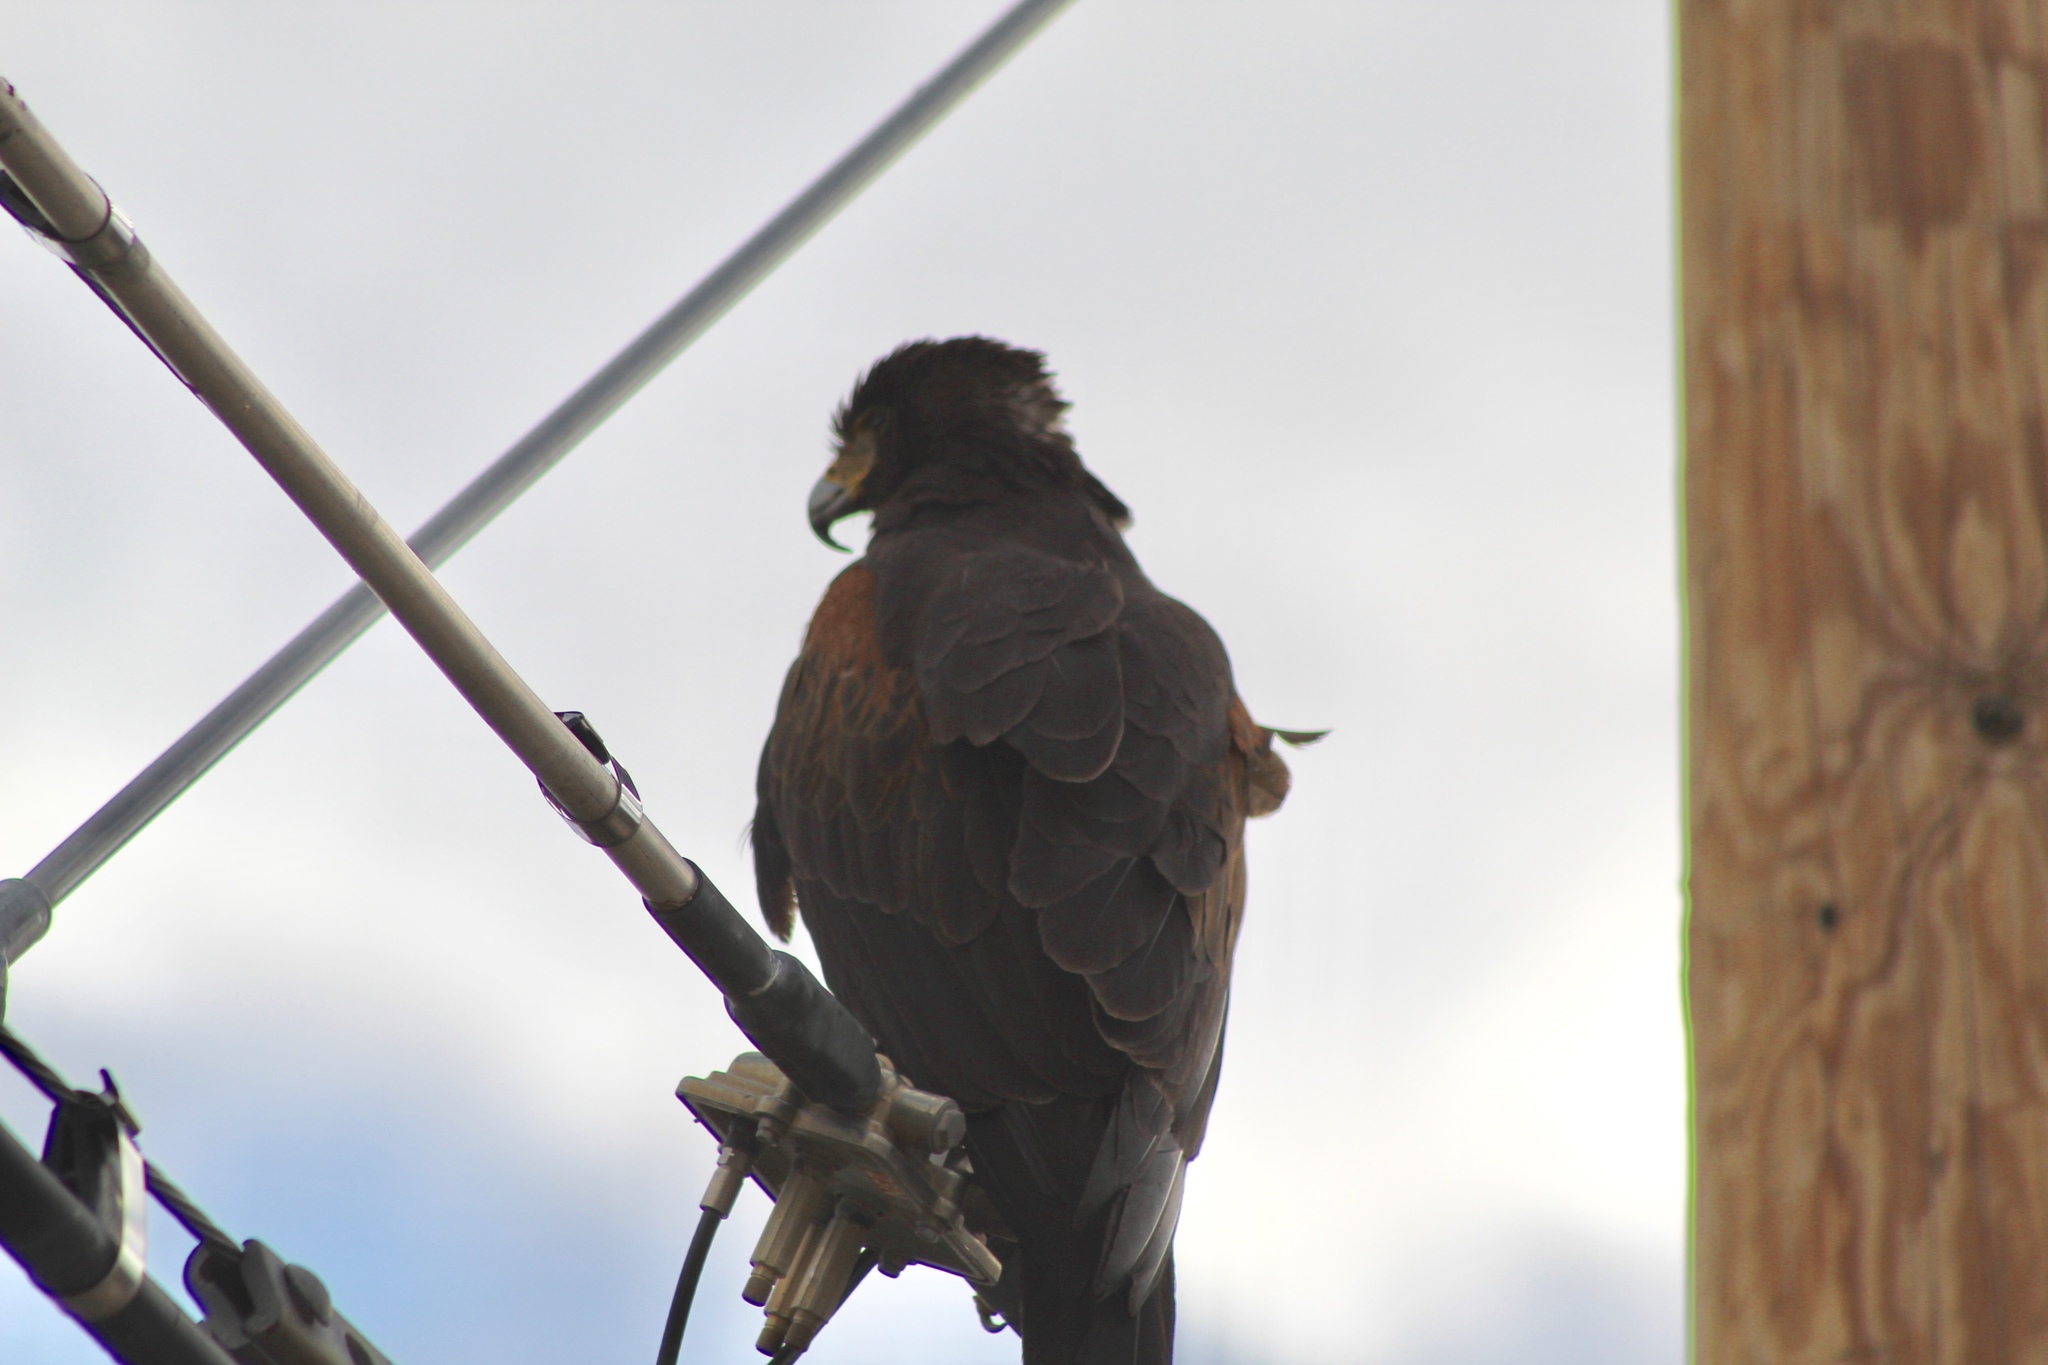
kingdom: Animalia
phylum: Chordata
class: Aves
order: Accipitriformes
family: Accipitridae
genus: Parabuteo
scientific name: Parabuteo unicinctus
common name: Harris's hawk
